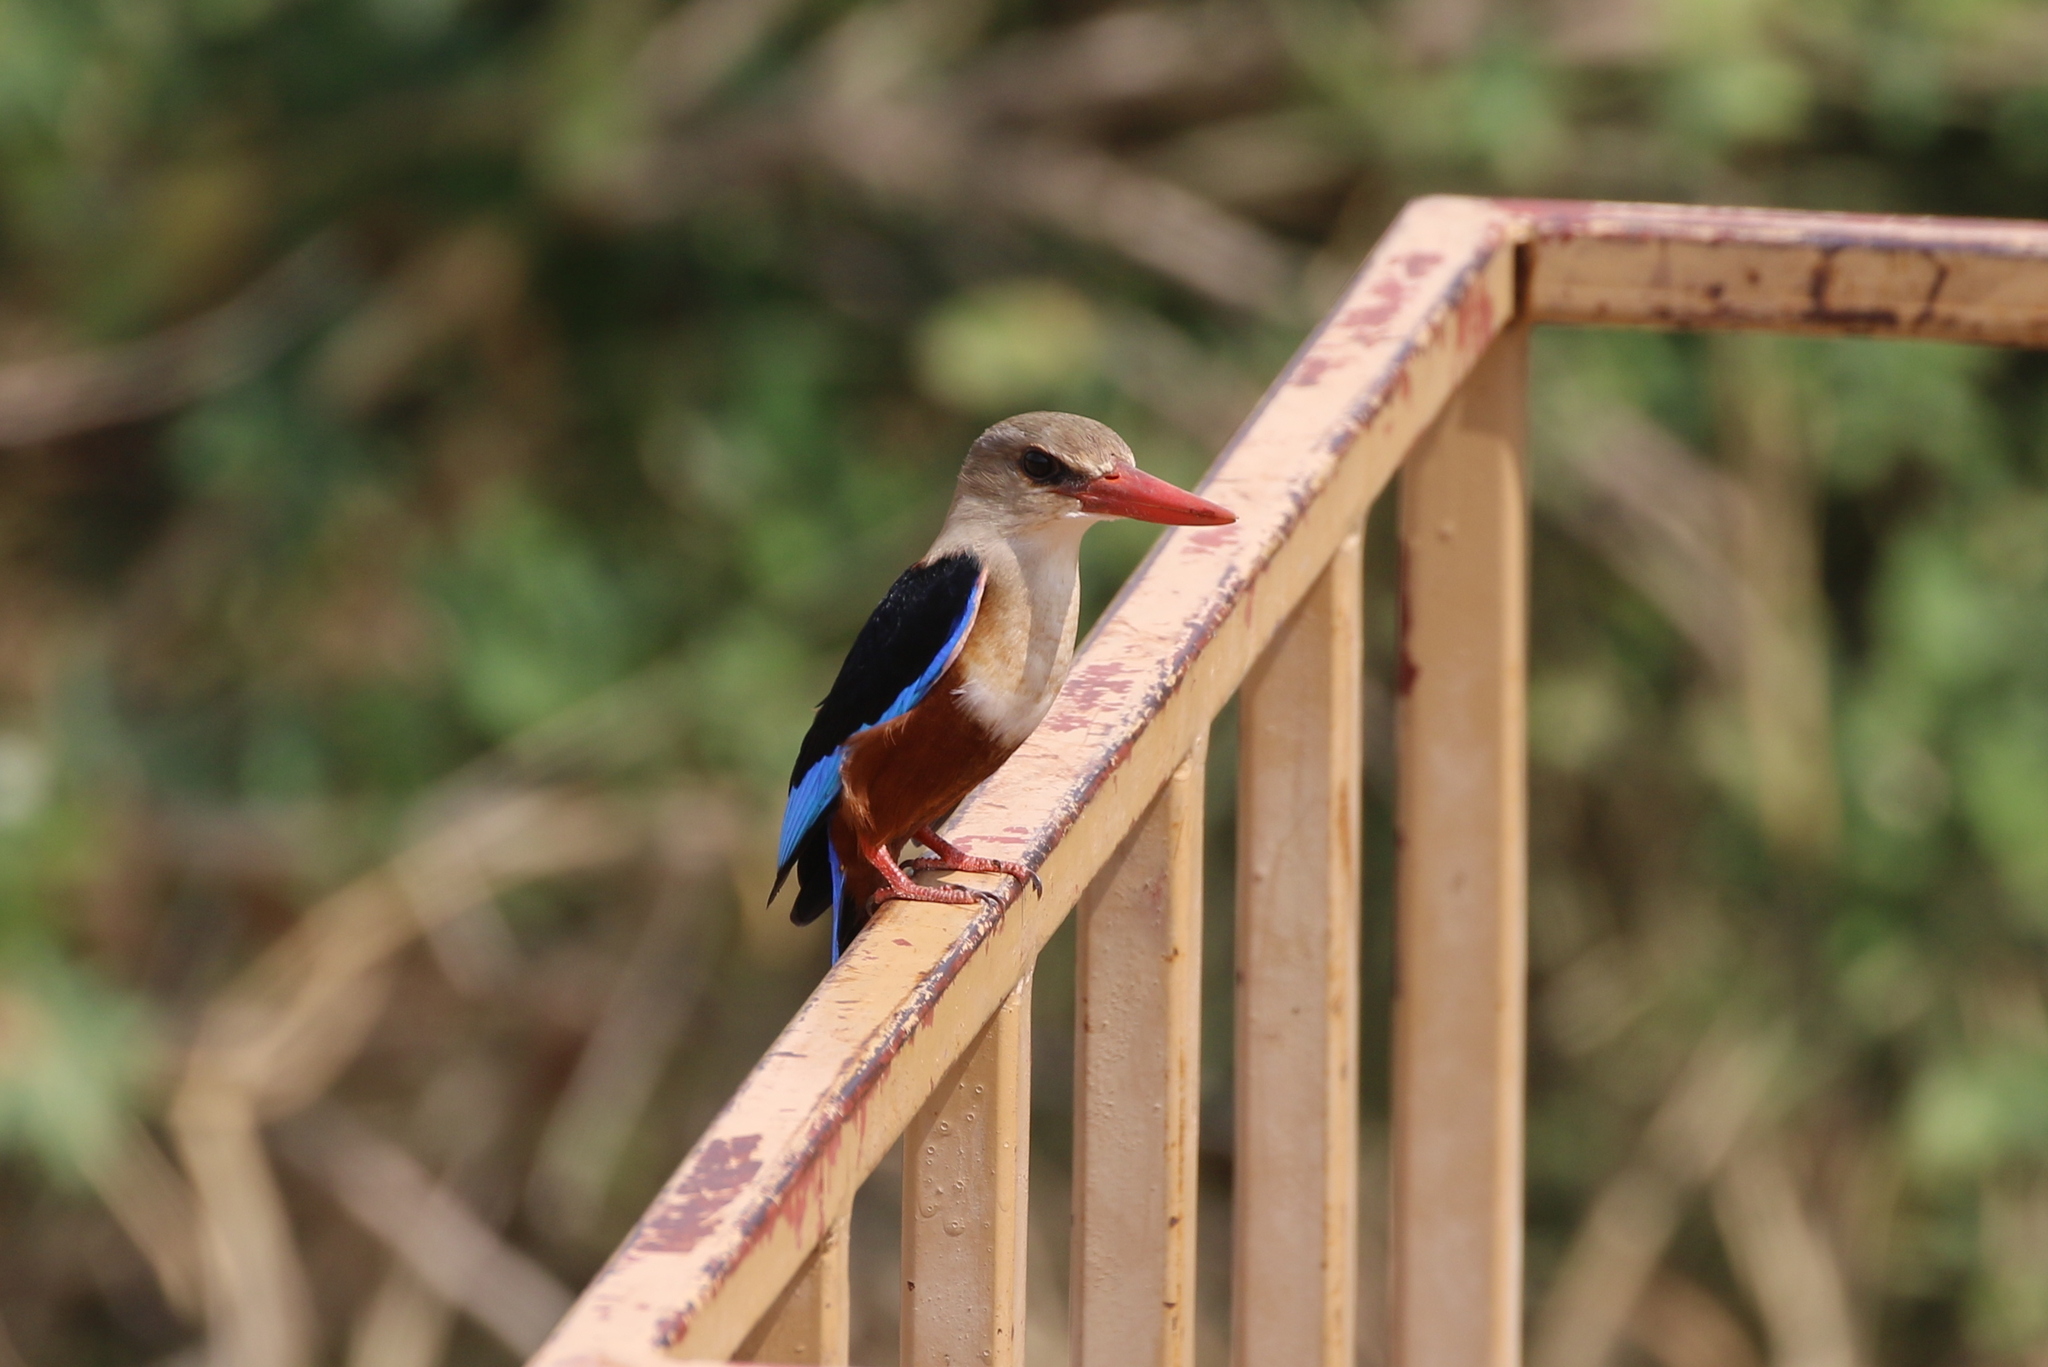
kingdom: Animalia
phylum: Chordata
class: Aves
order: Coraciiformes
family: Alcedinidae
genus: Halcyon
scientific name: Halcyon leucocephala
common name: Grey-headed kingfisher
